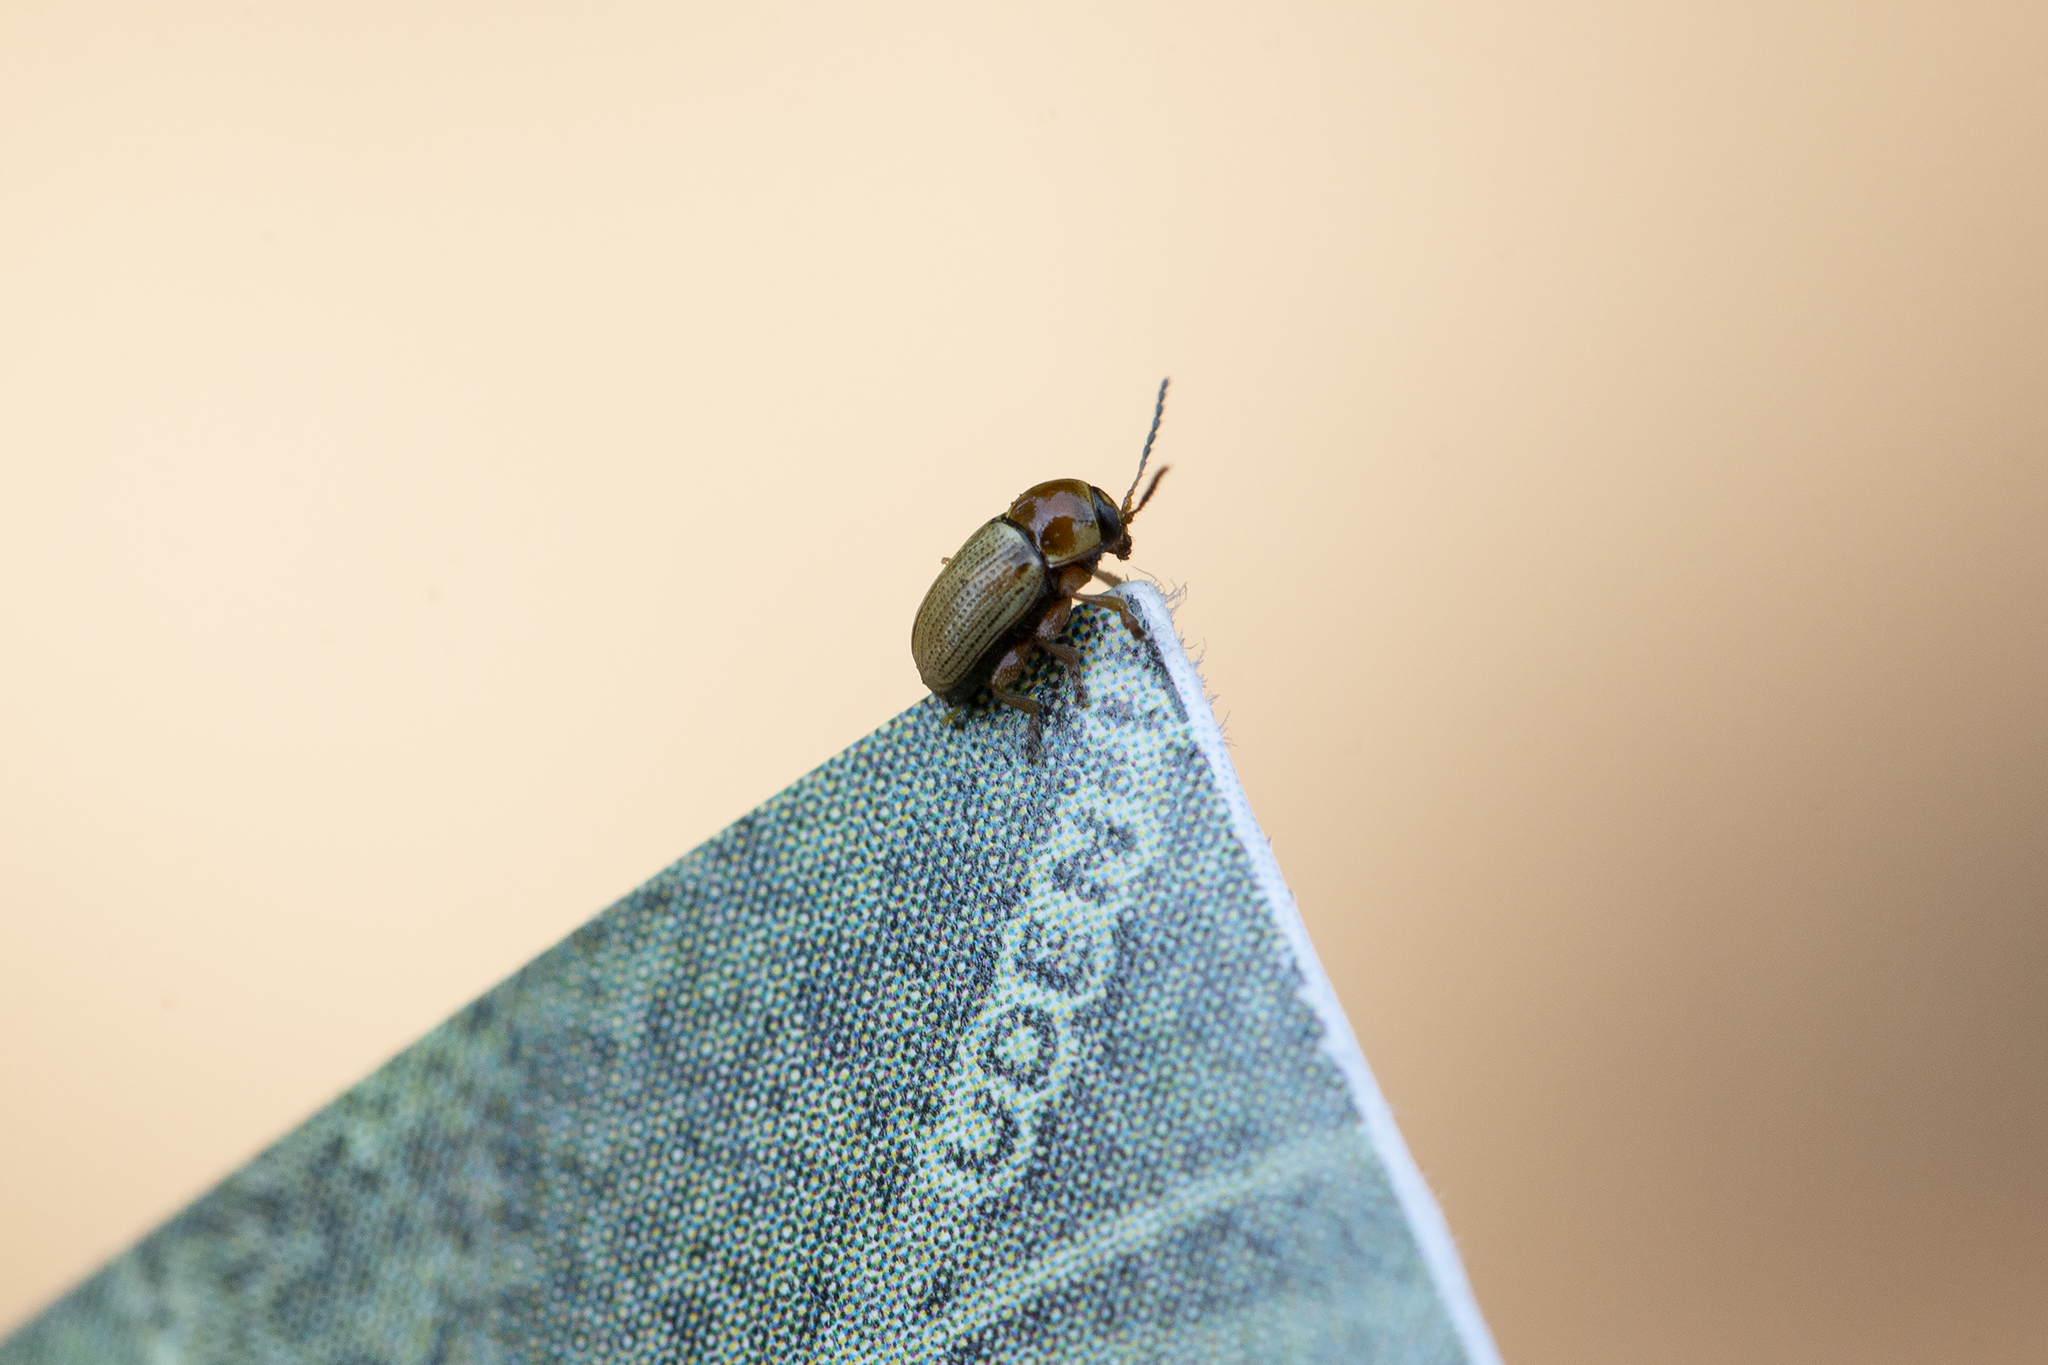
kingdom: Animalia
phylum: Arthropoda
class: Insecta
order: Coleoptera
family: Chrysomelidae
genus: Cryptocephalus
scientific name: Cryptocephalus fulvus
